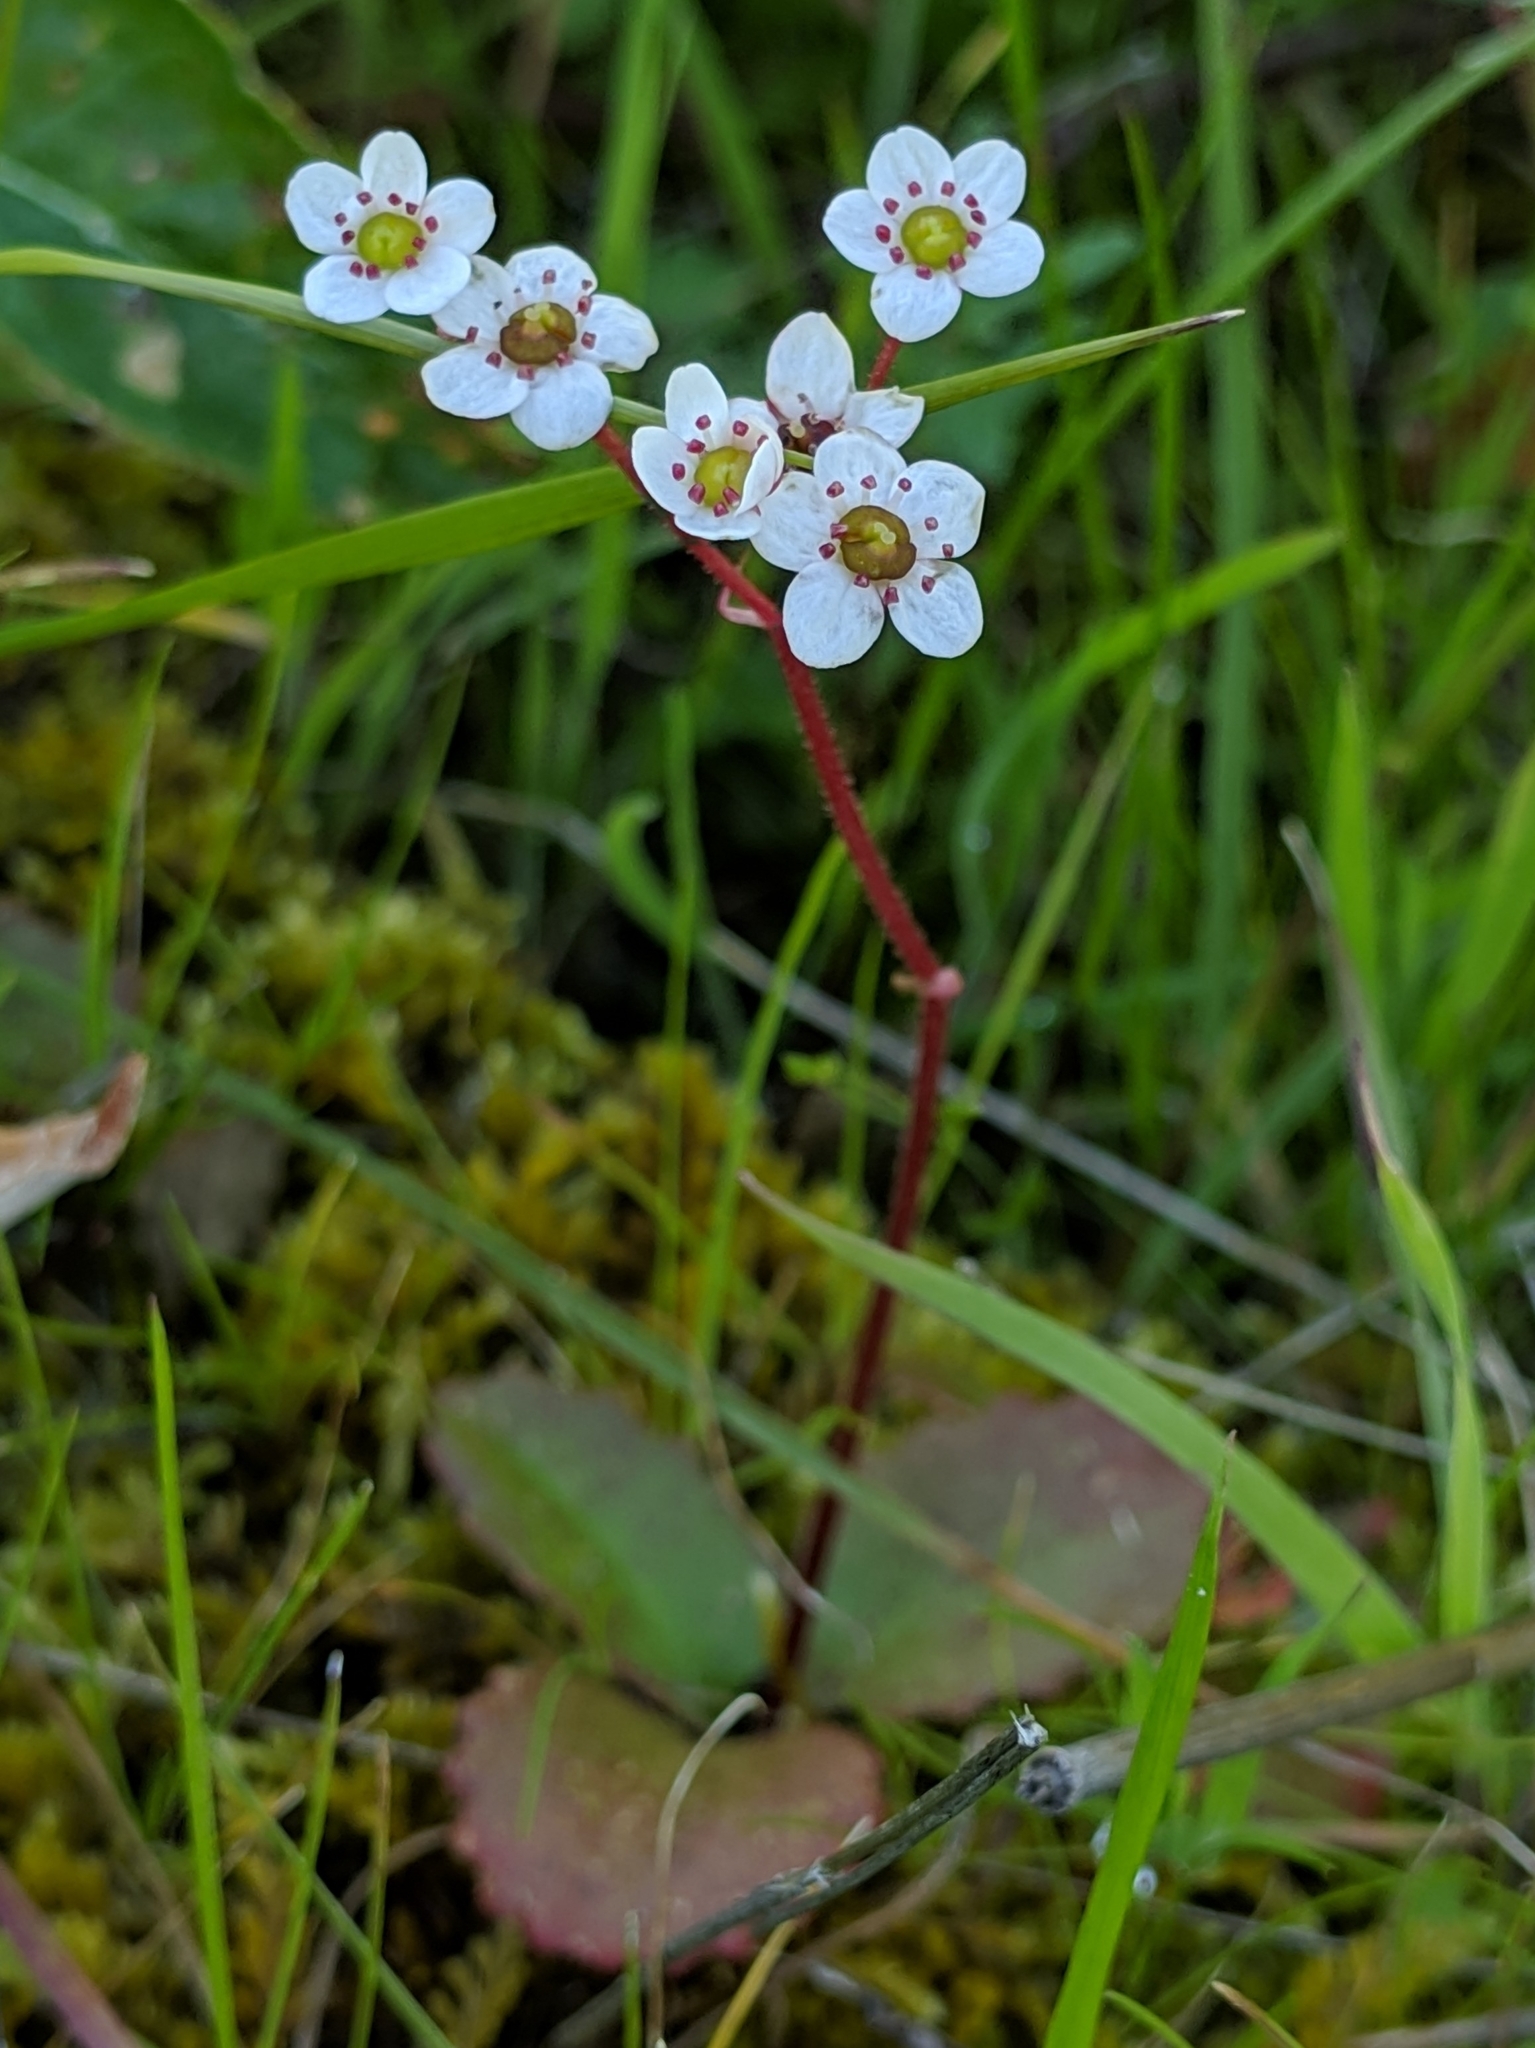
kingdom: Plantae
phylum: Tracheophyta
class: Magnoliopsida
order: Saxifragales
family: Saxifragaceae
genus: Micranthes
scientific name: Micranthes californica
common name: California saxifrage
